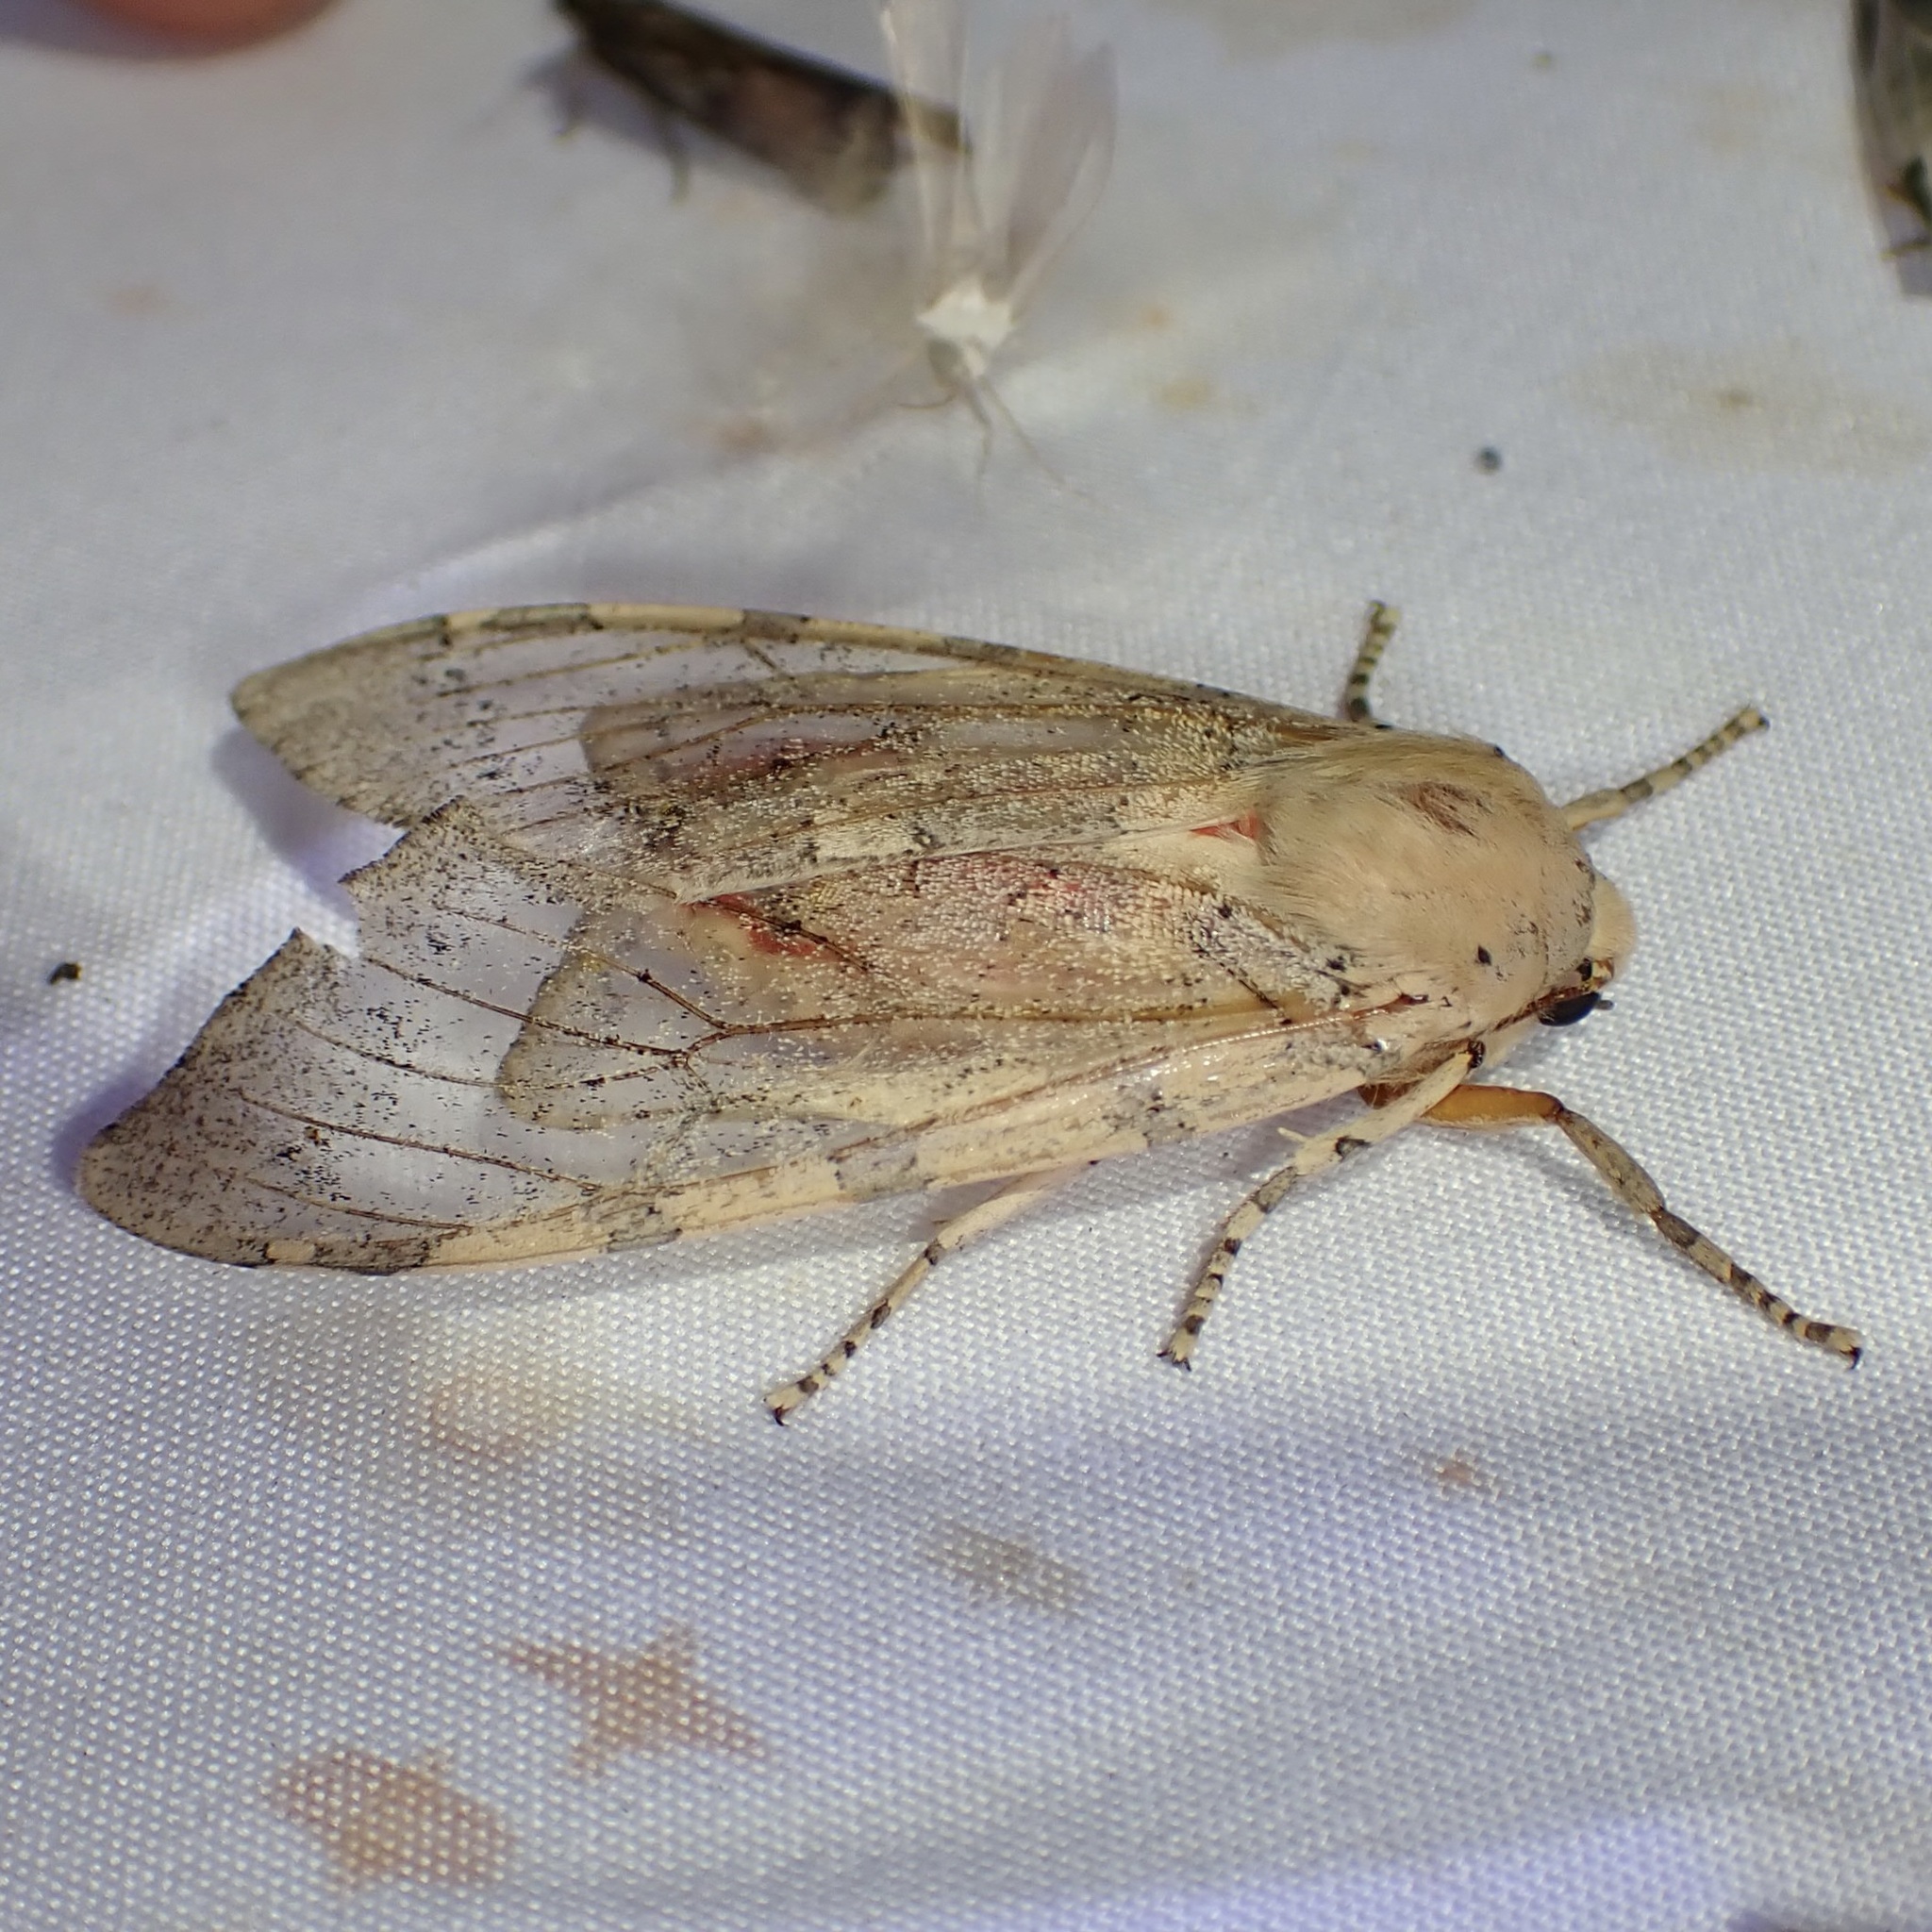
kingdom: Animalia
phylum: Arthropoda
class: Insecta
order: Lepidoptera
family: Erebidae
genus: Hemihyalea
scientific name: Hemihyalea edwardsii
